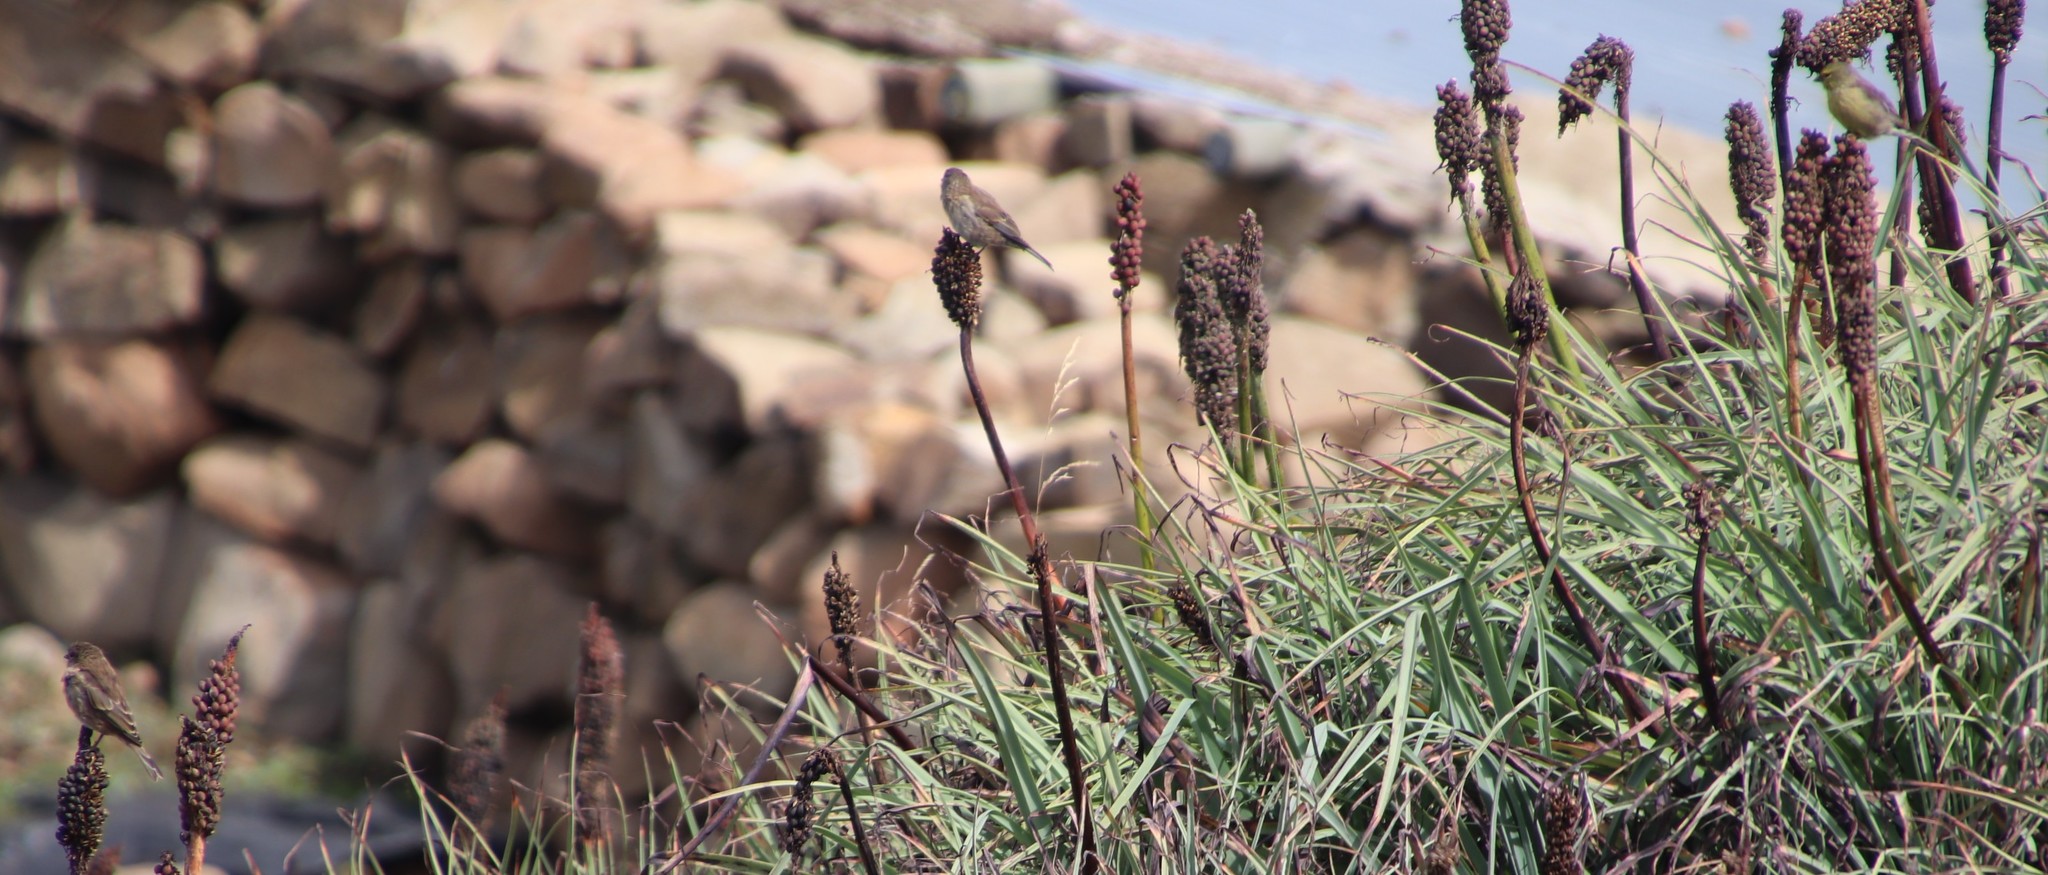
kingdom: Animalia
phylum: Chordata
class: Aves
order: Passeriformes
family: Passeridae
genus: Passer
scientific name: Passer diffusus
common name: Southern grey-headed sparrow
